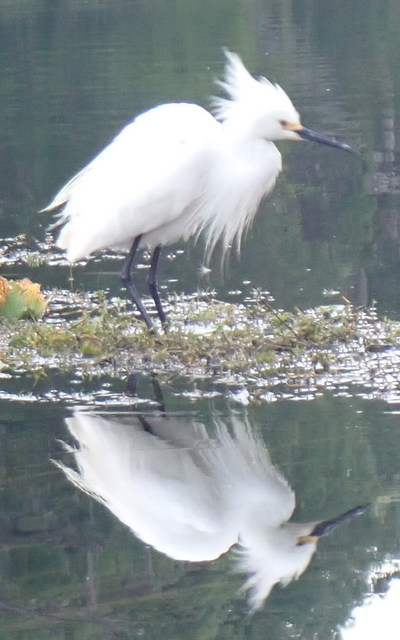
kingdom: Animalia
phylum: Chordata
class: Aves
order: Pelecaniformes
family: Ardeidae
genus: Egretta
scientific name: Egretta thula
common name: Snowy egret
